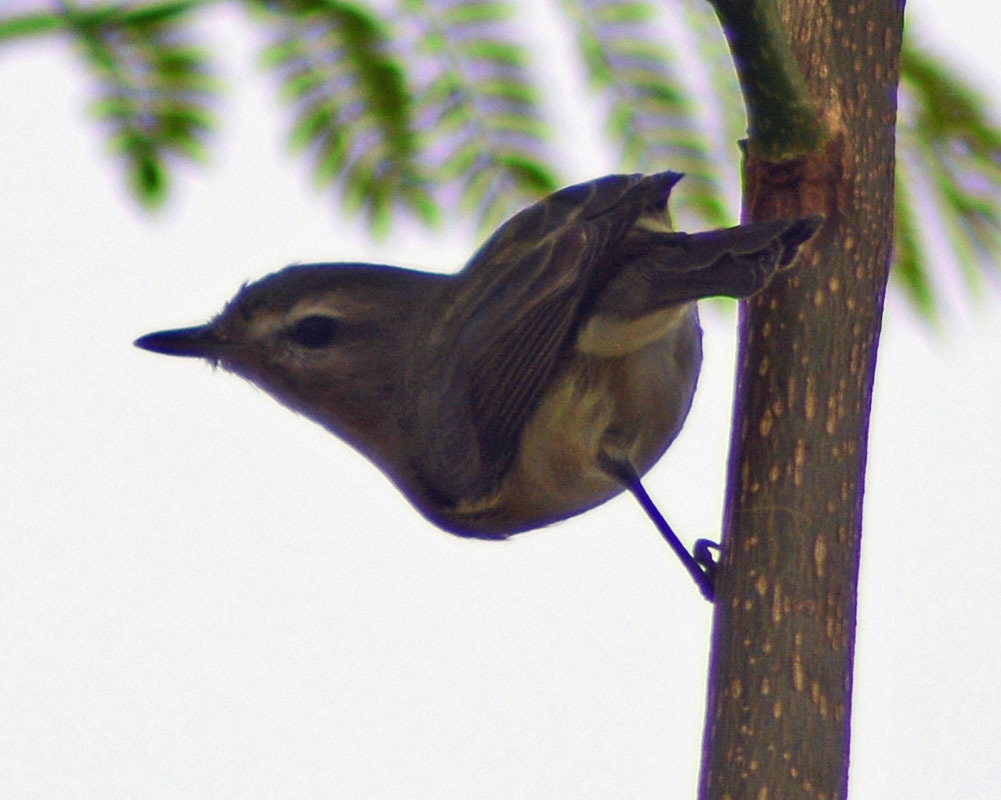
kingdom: Animalia
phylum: Chordata
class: Aves
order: Passeriformes
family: Vireonidae
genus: Vireo
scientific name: Vireo gilvus
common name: Warbling vireo
